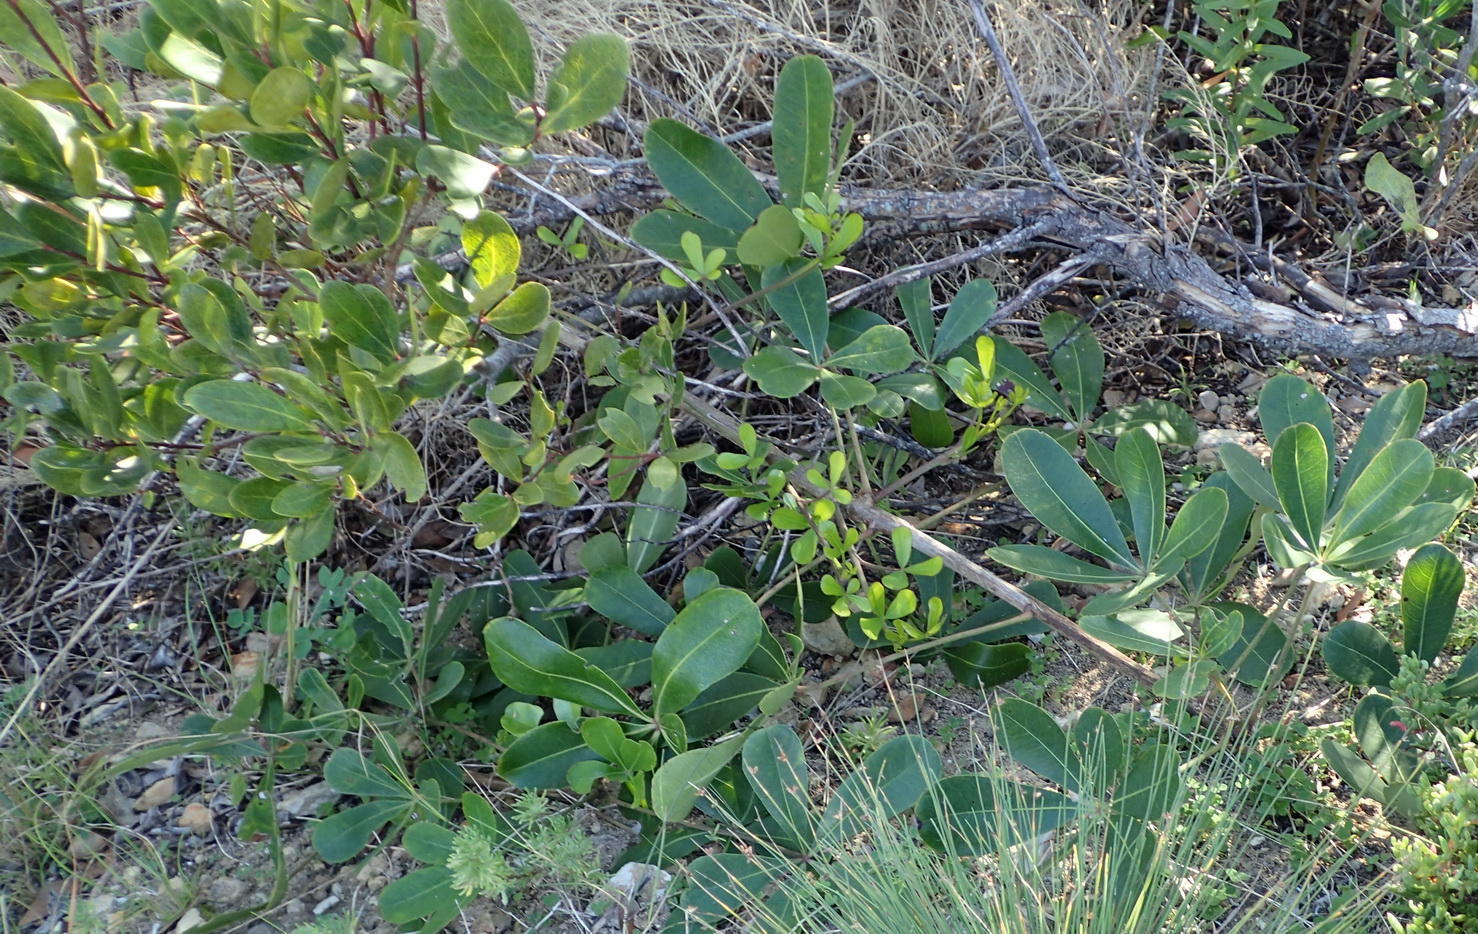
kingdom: Plantae
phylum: Tracheophyta
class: Magnoliopsida
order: Apiales
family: Araliaceae
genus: Cussonia
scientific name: Cussonia thyrsiflora
